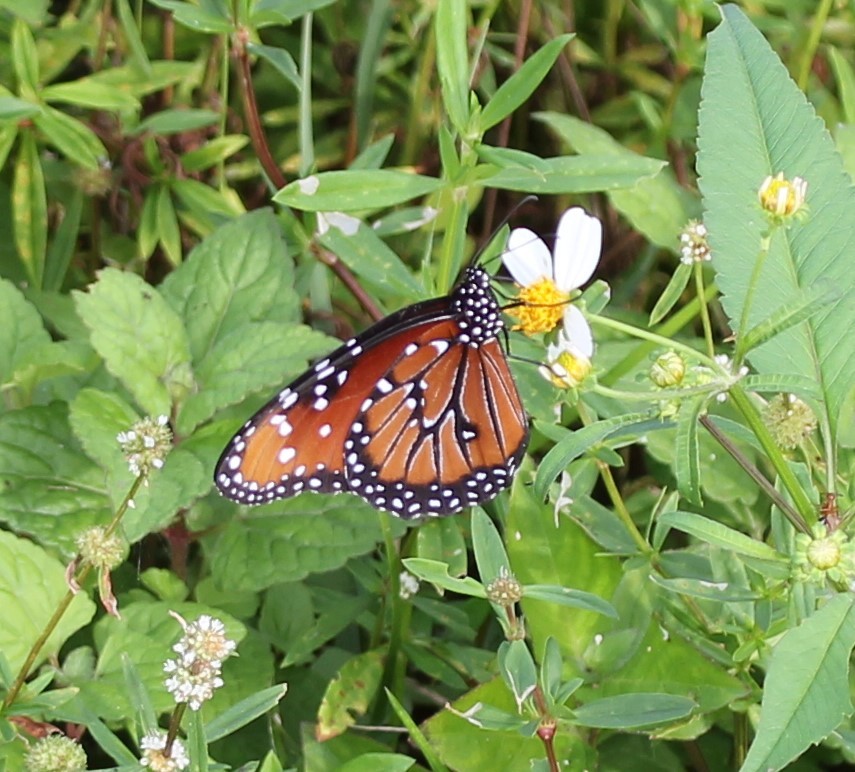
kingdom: Animalia
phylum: Arthropoda
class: Insecta
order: Lepidoptera
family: Nymphalidae
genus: Danaus
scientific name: Danaus gilippus
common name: Queen
